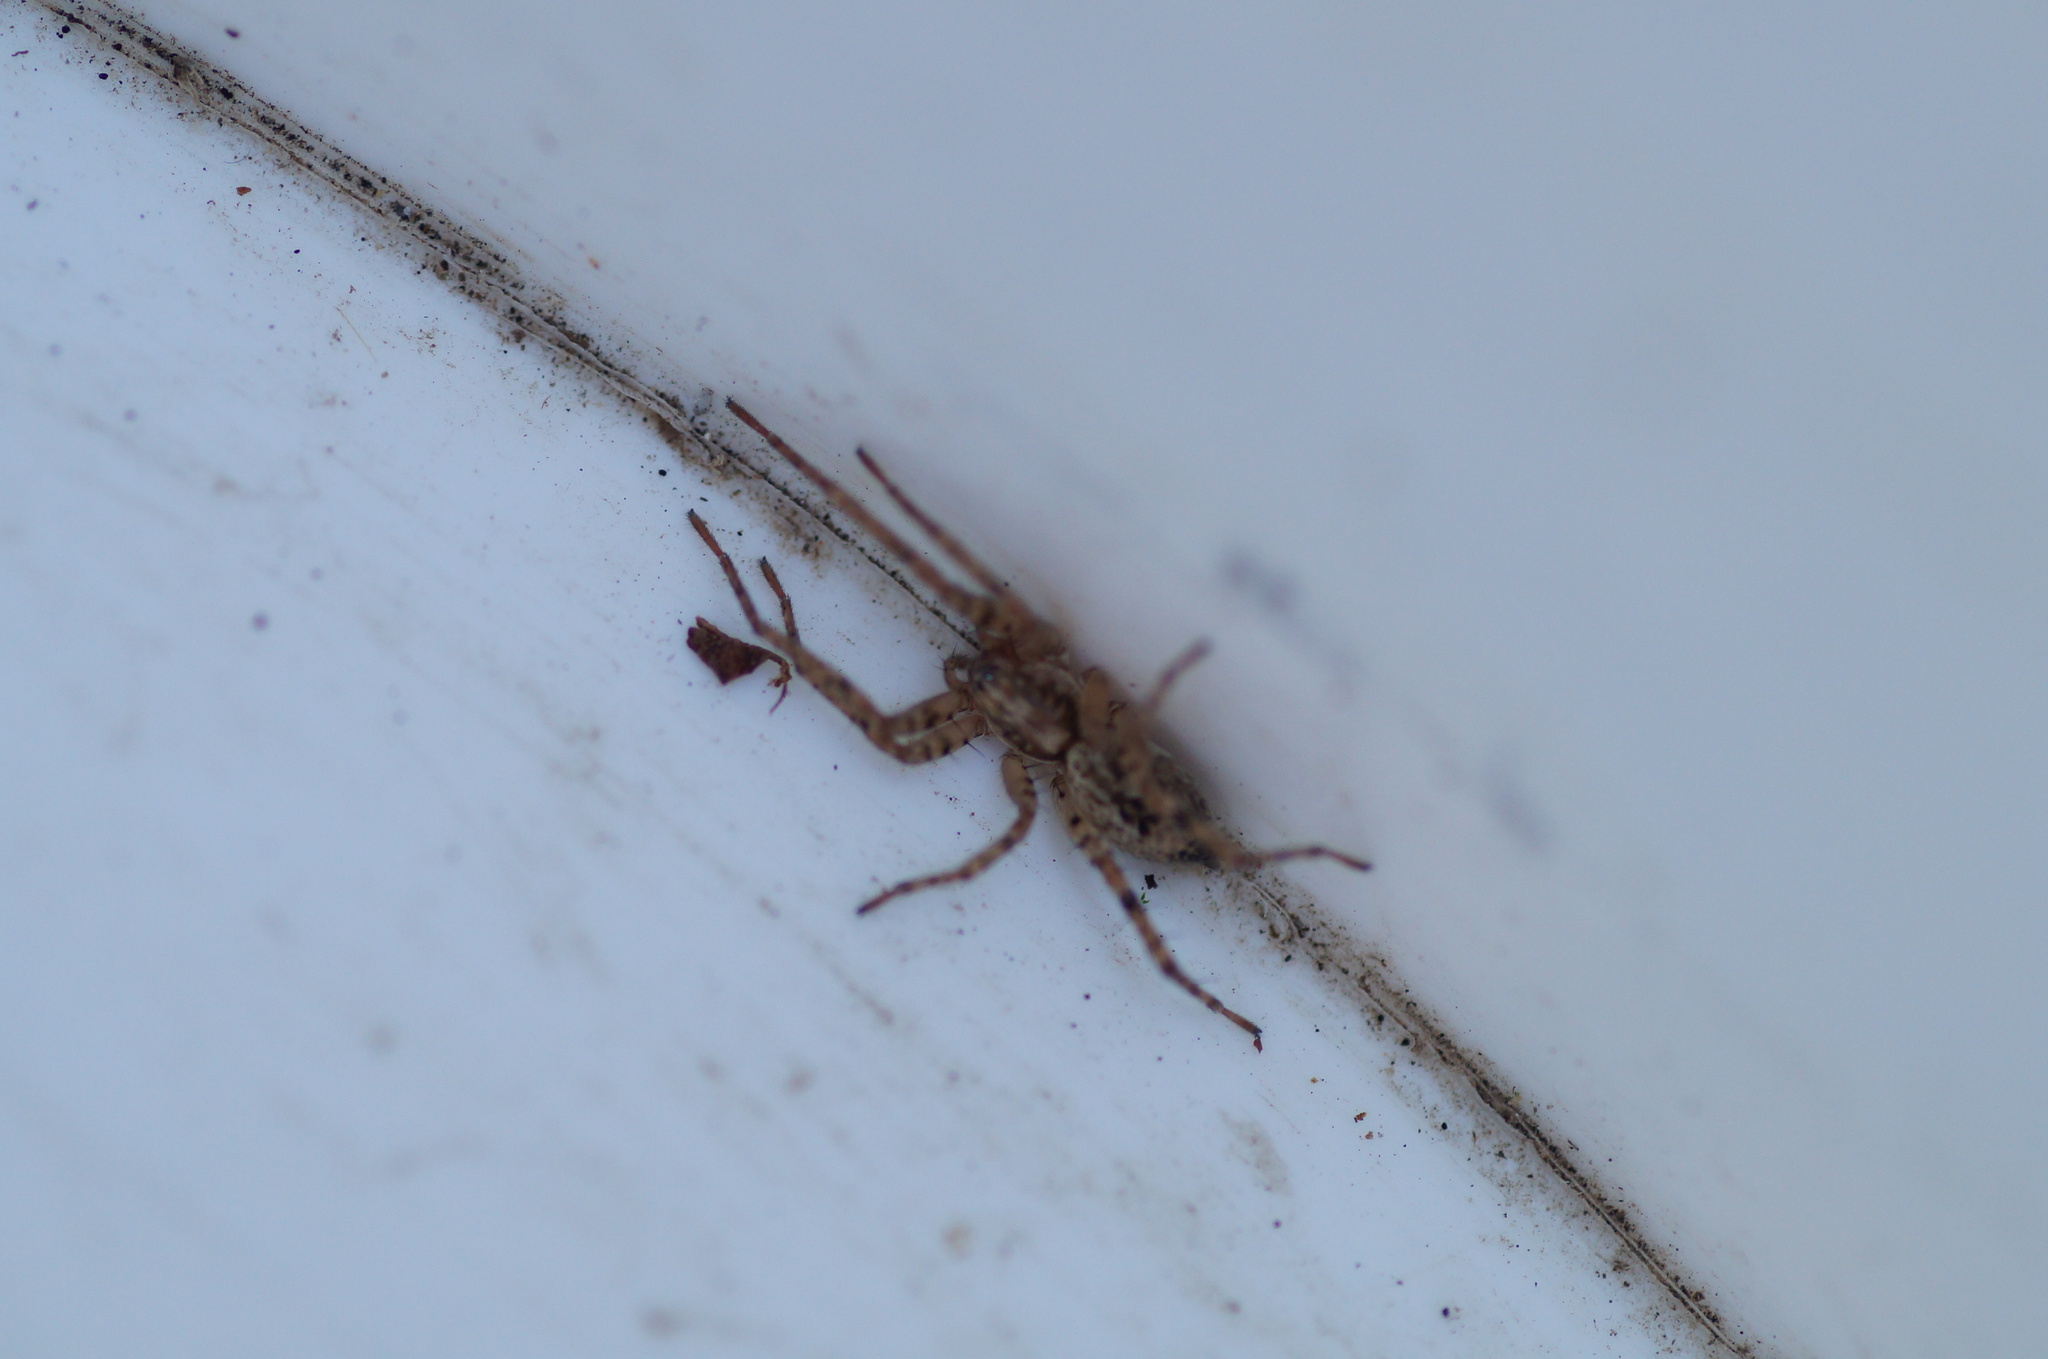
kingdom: Animalia
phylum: Arthropoda
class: Arachnida
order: Araneae
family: Anyphaenidae
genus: Anyphaena
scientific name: Anyphaena accentuata
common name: Buzzing spider
